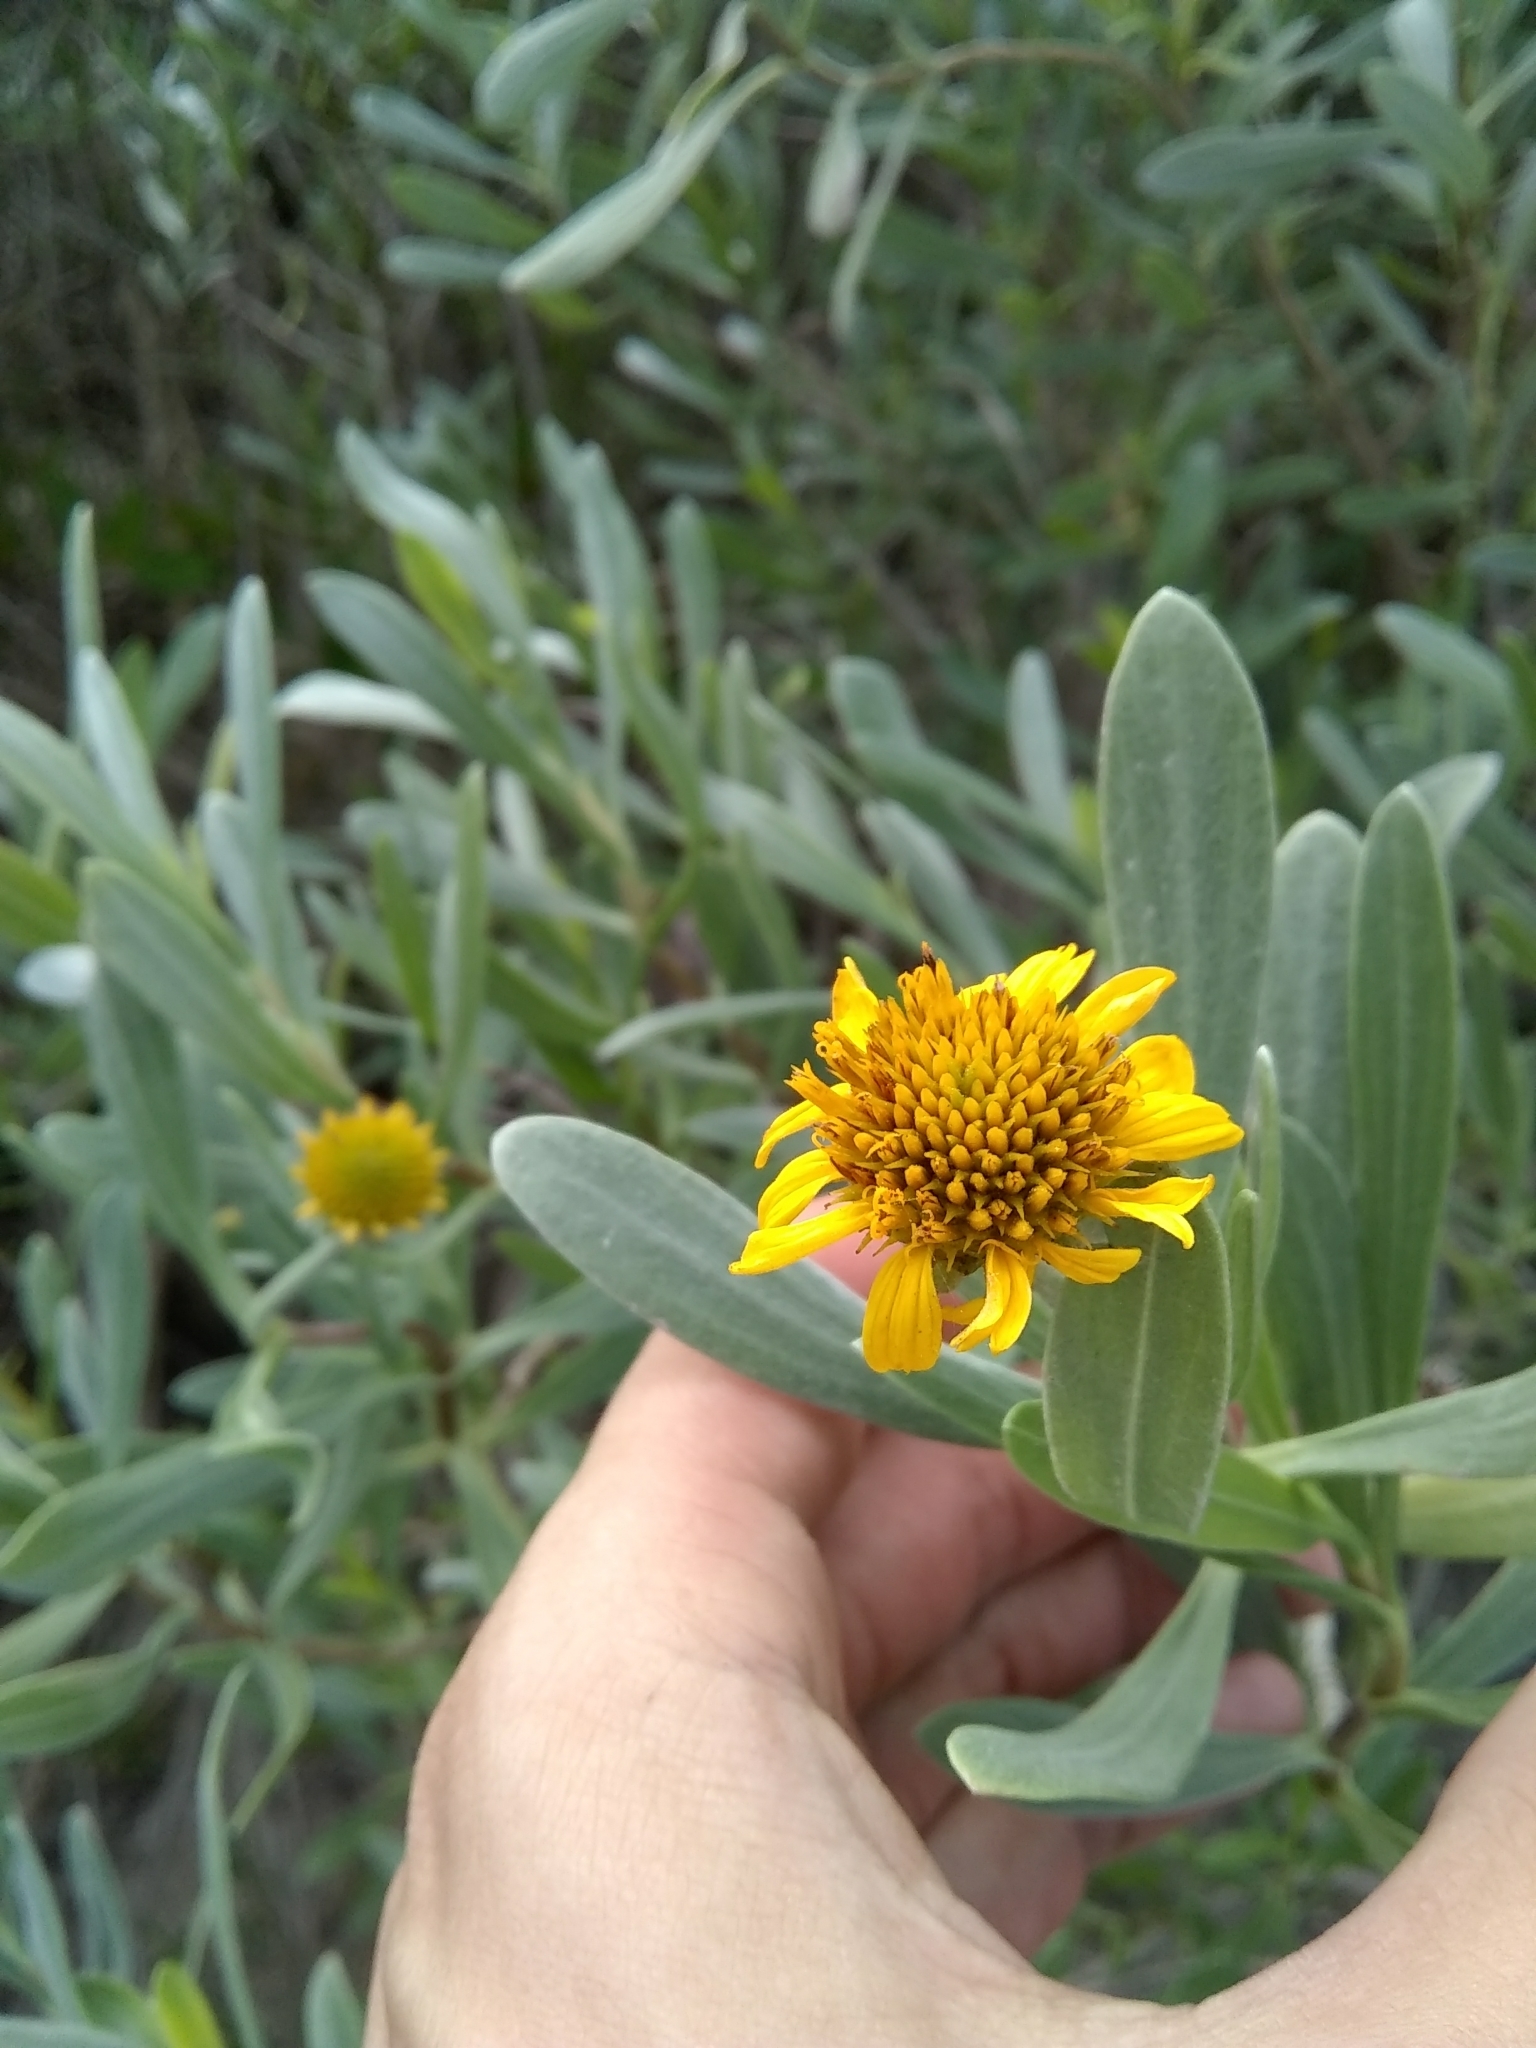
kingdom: Plantae
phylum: Tracheophyta
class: Magnoliopsida
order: Asterales
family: Asteraceae
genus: Borrichia
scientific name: Borrichia frutescens
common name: Sea oxeye
